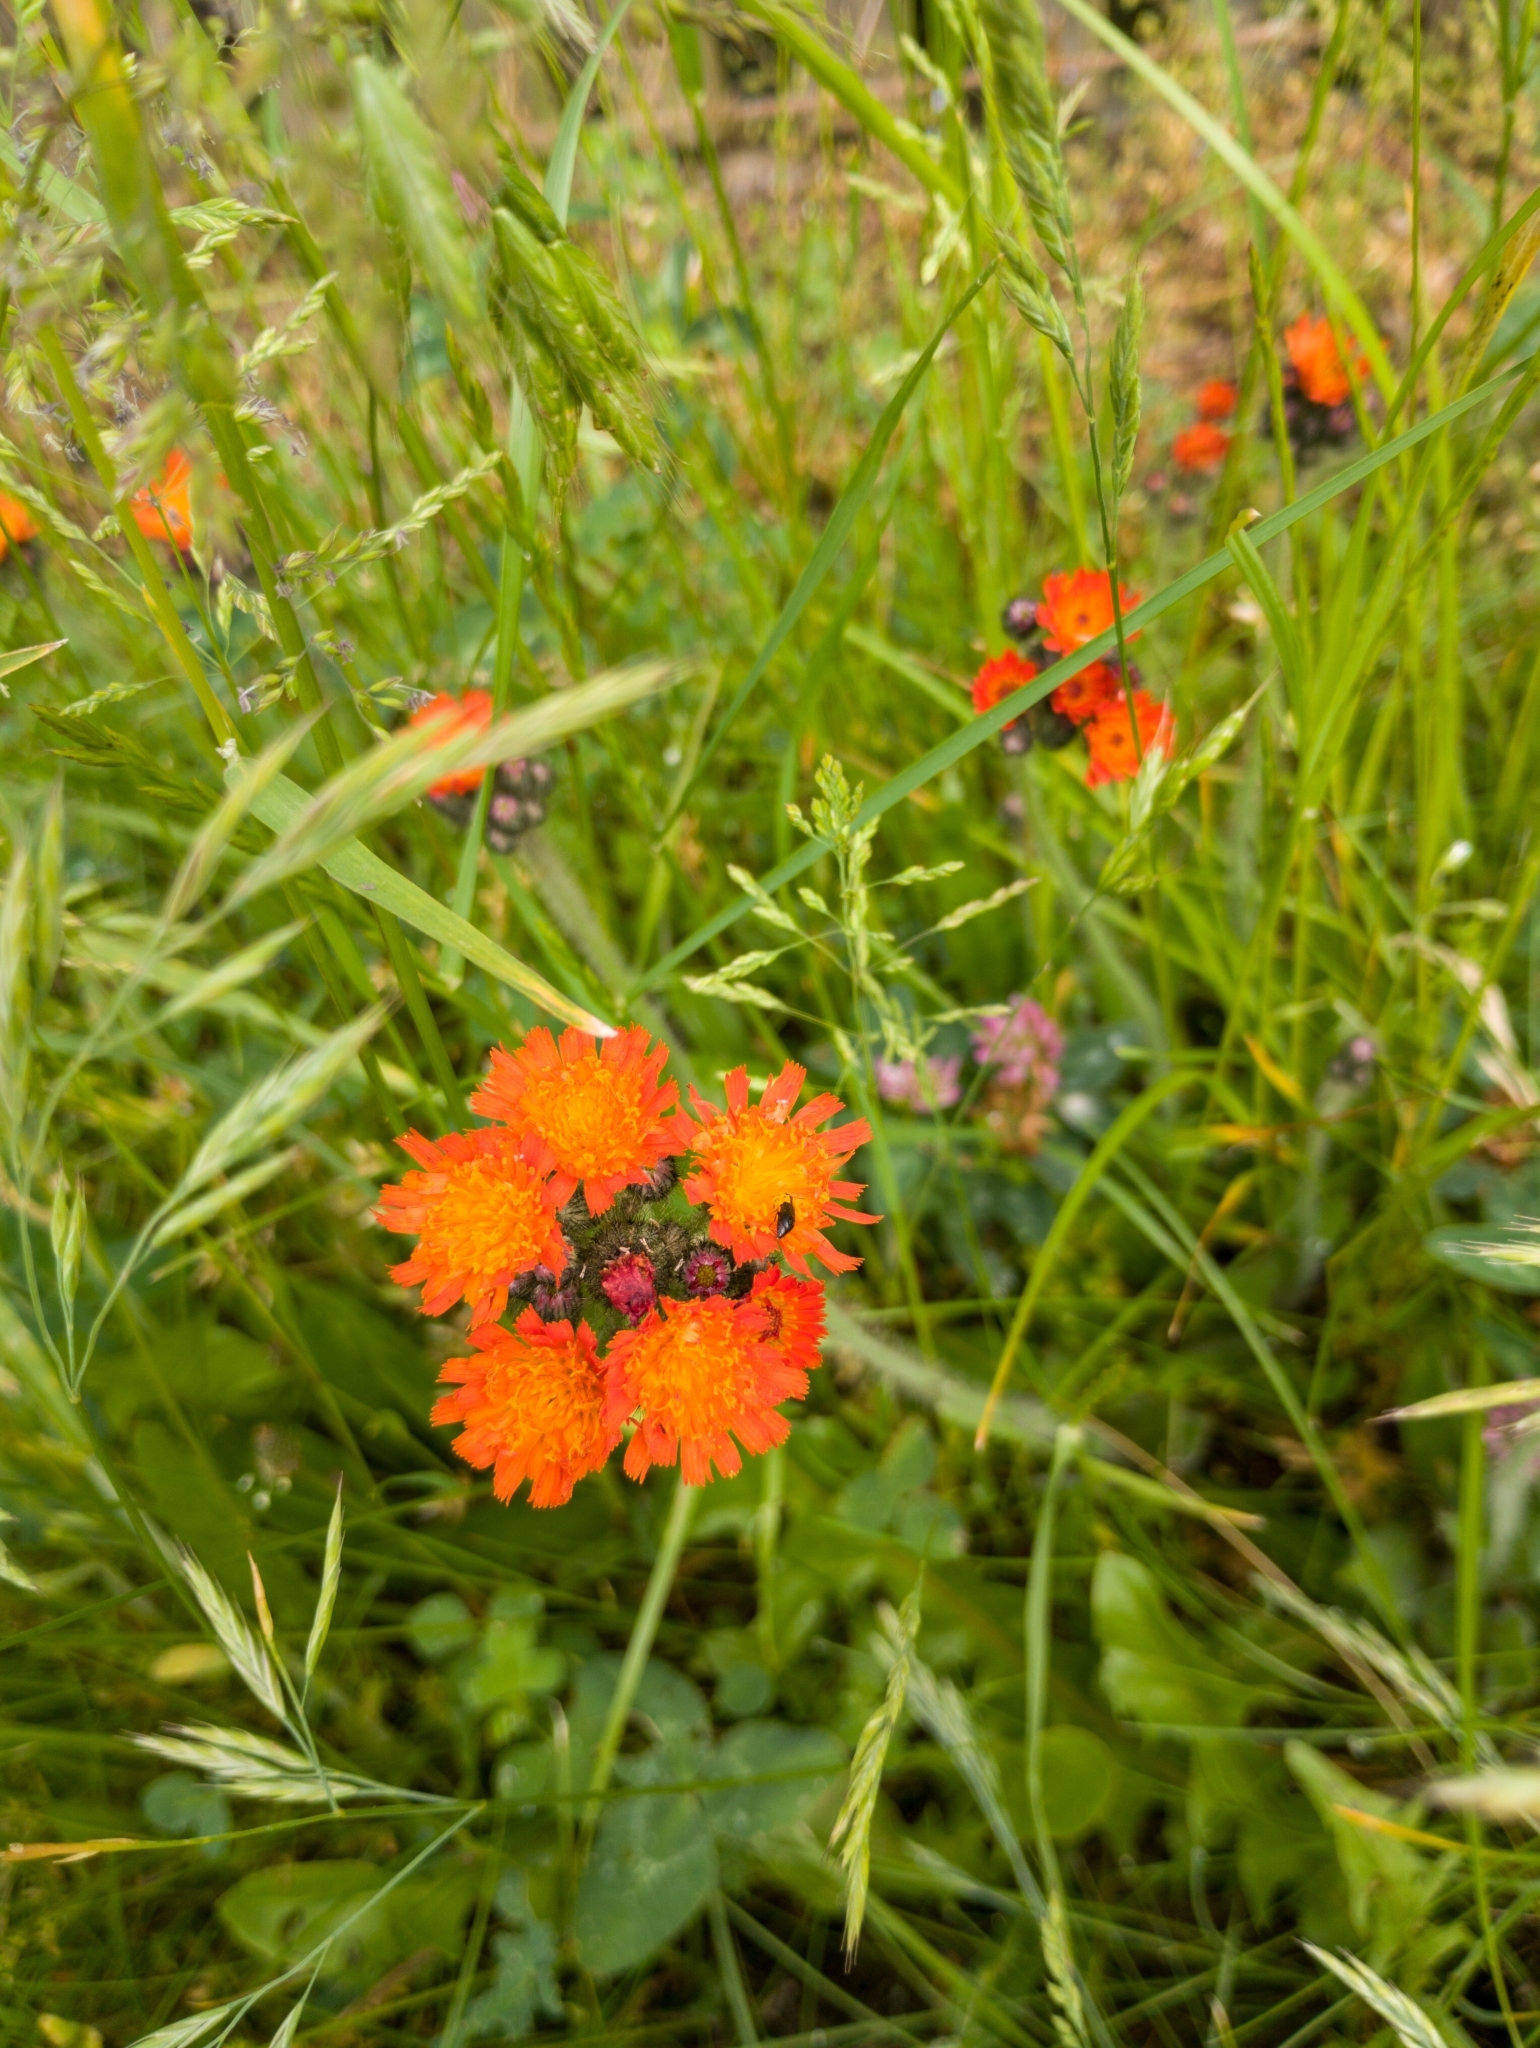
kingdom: Plantae
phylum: Tracheophyta
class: Magnoliopsida
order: Asterales
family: Asteraceae
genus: Pilosella
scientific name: Pilosella aurantiaca
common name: Fox-and-cubs
